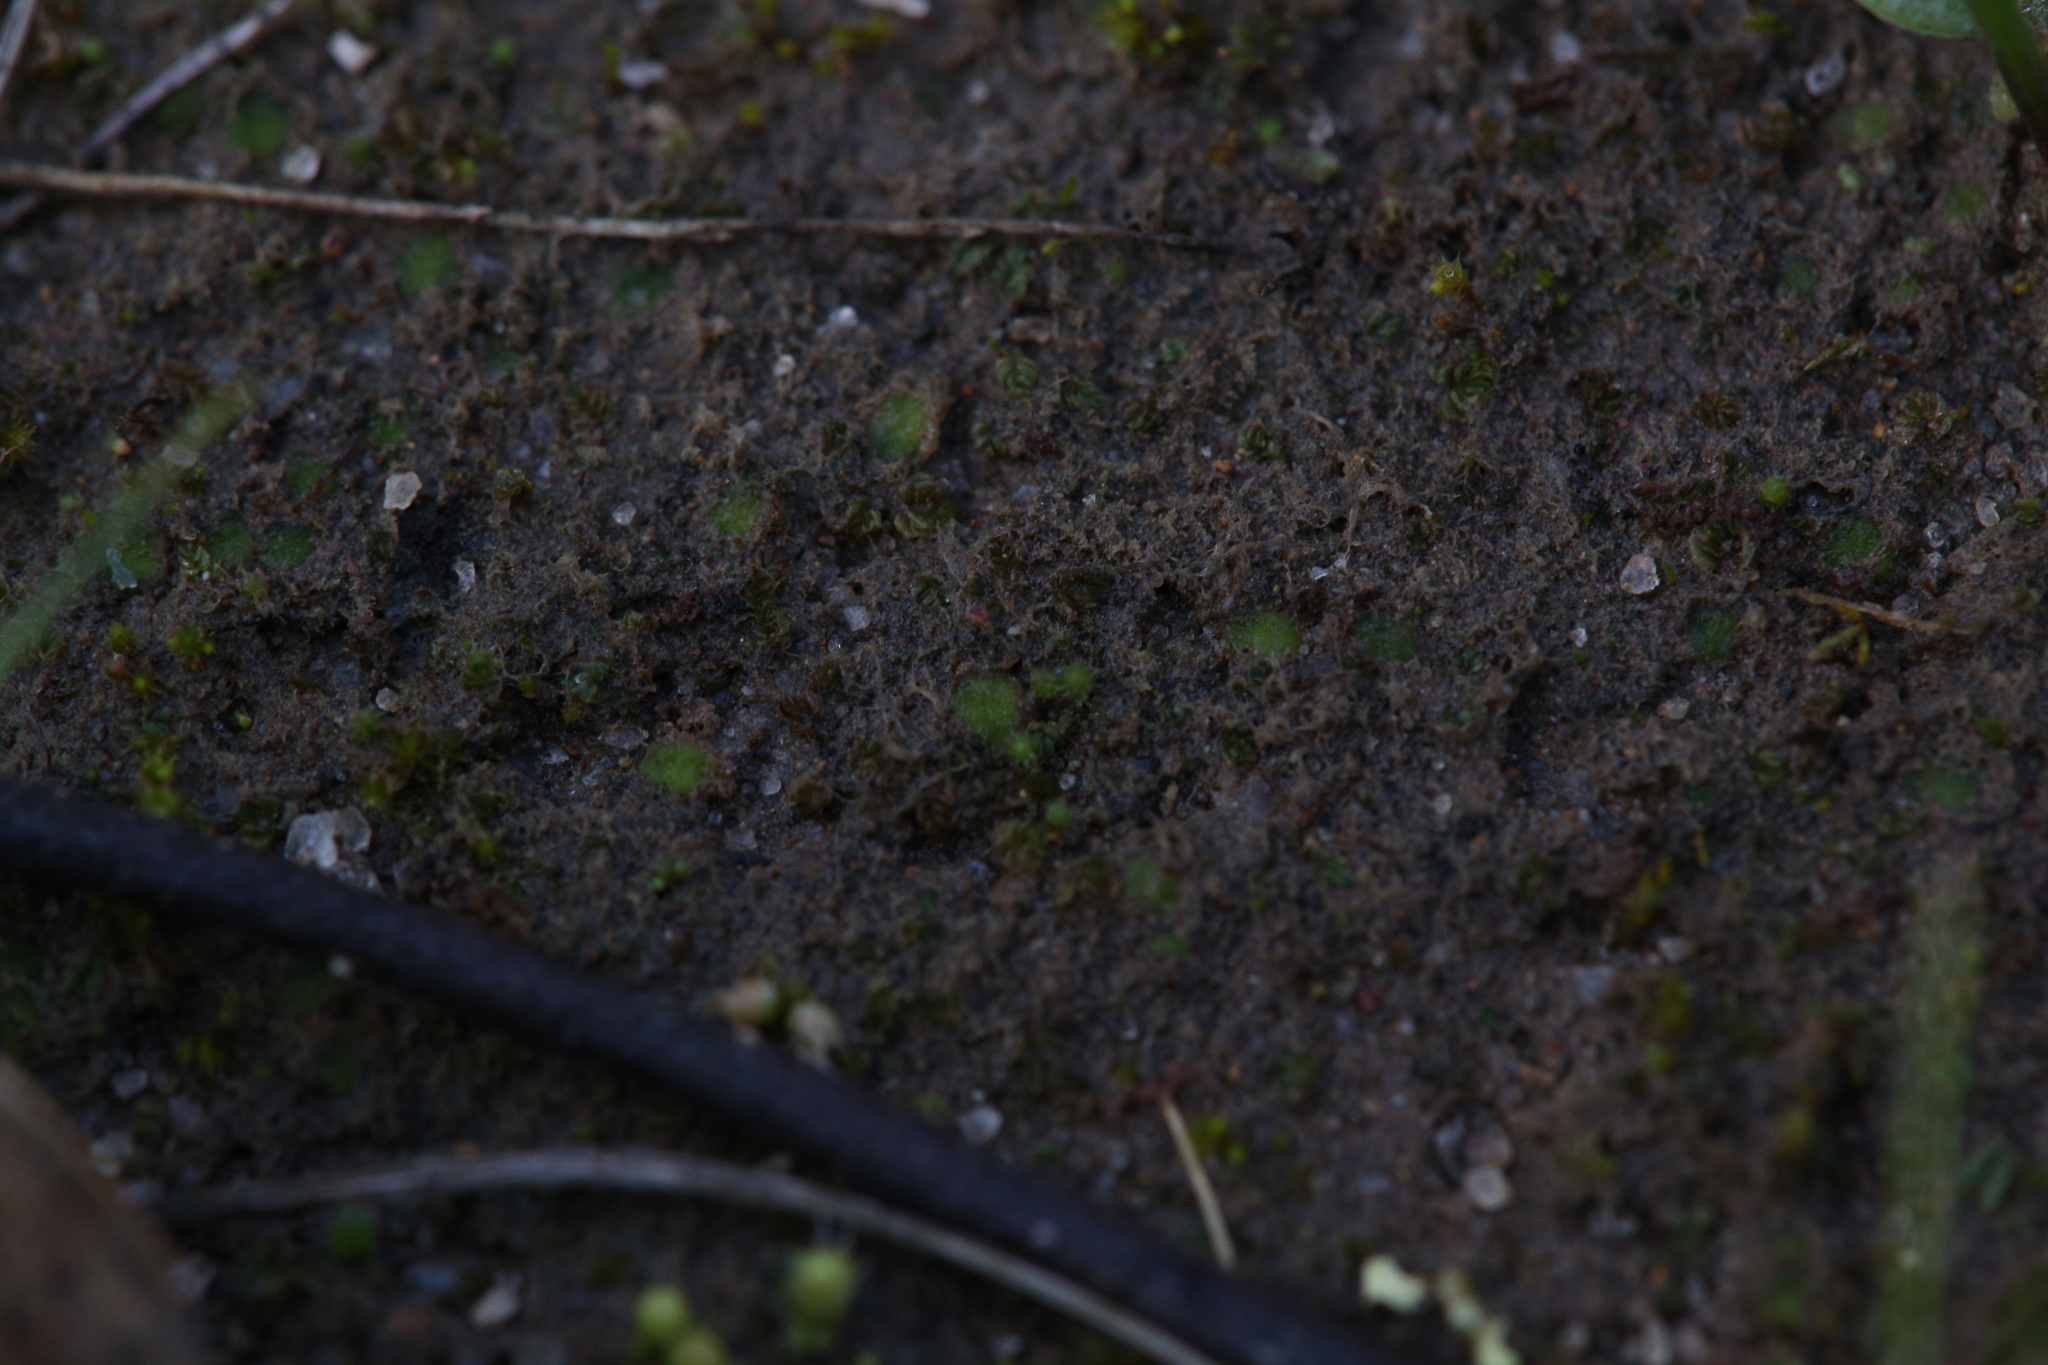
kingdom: Plantae
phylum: Marchantiophyta
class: Jungermanniopsida
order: Jungermanniales
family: Acrobolbaceae
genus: Enigmella
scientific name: Enigmella thallina
